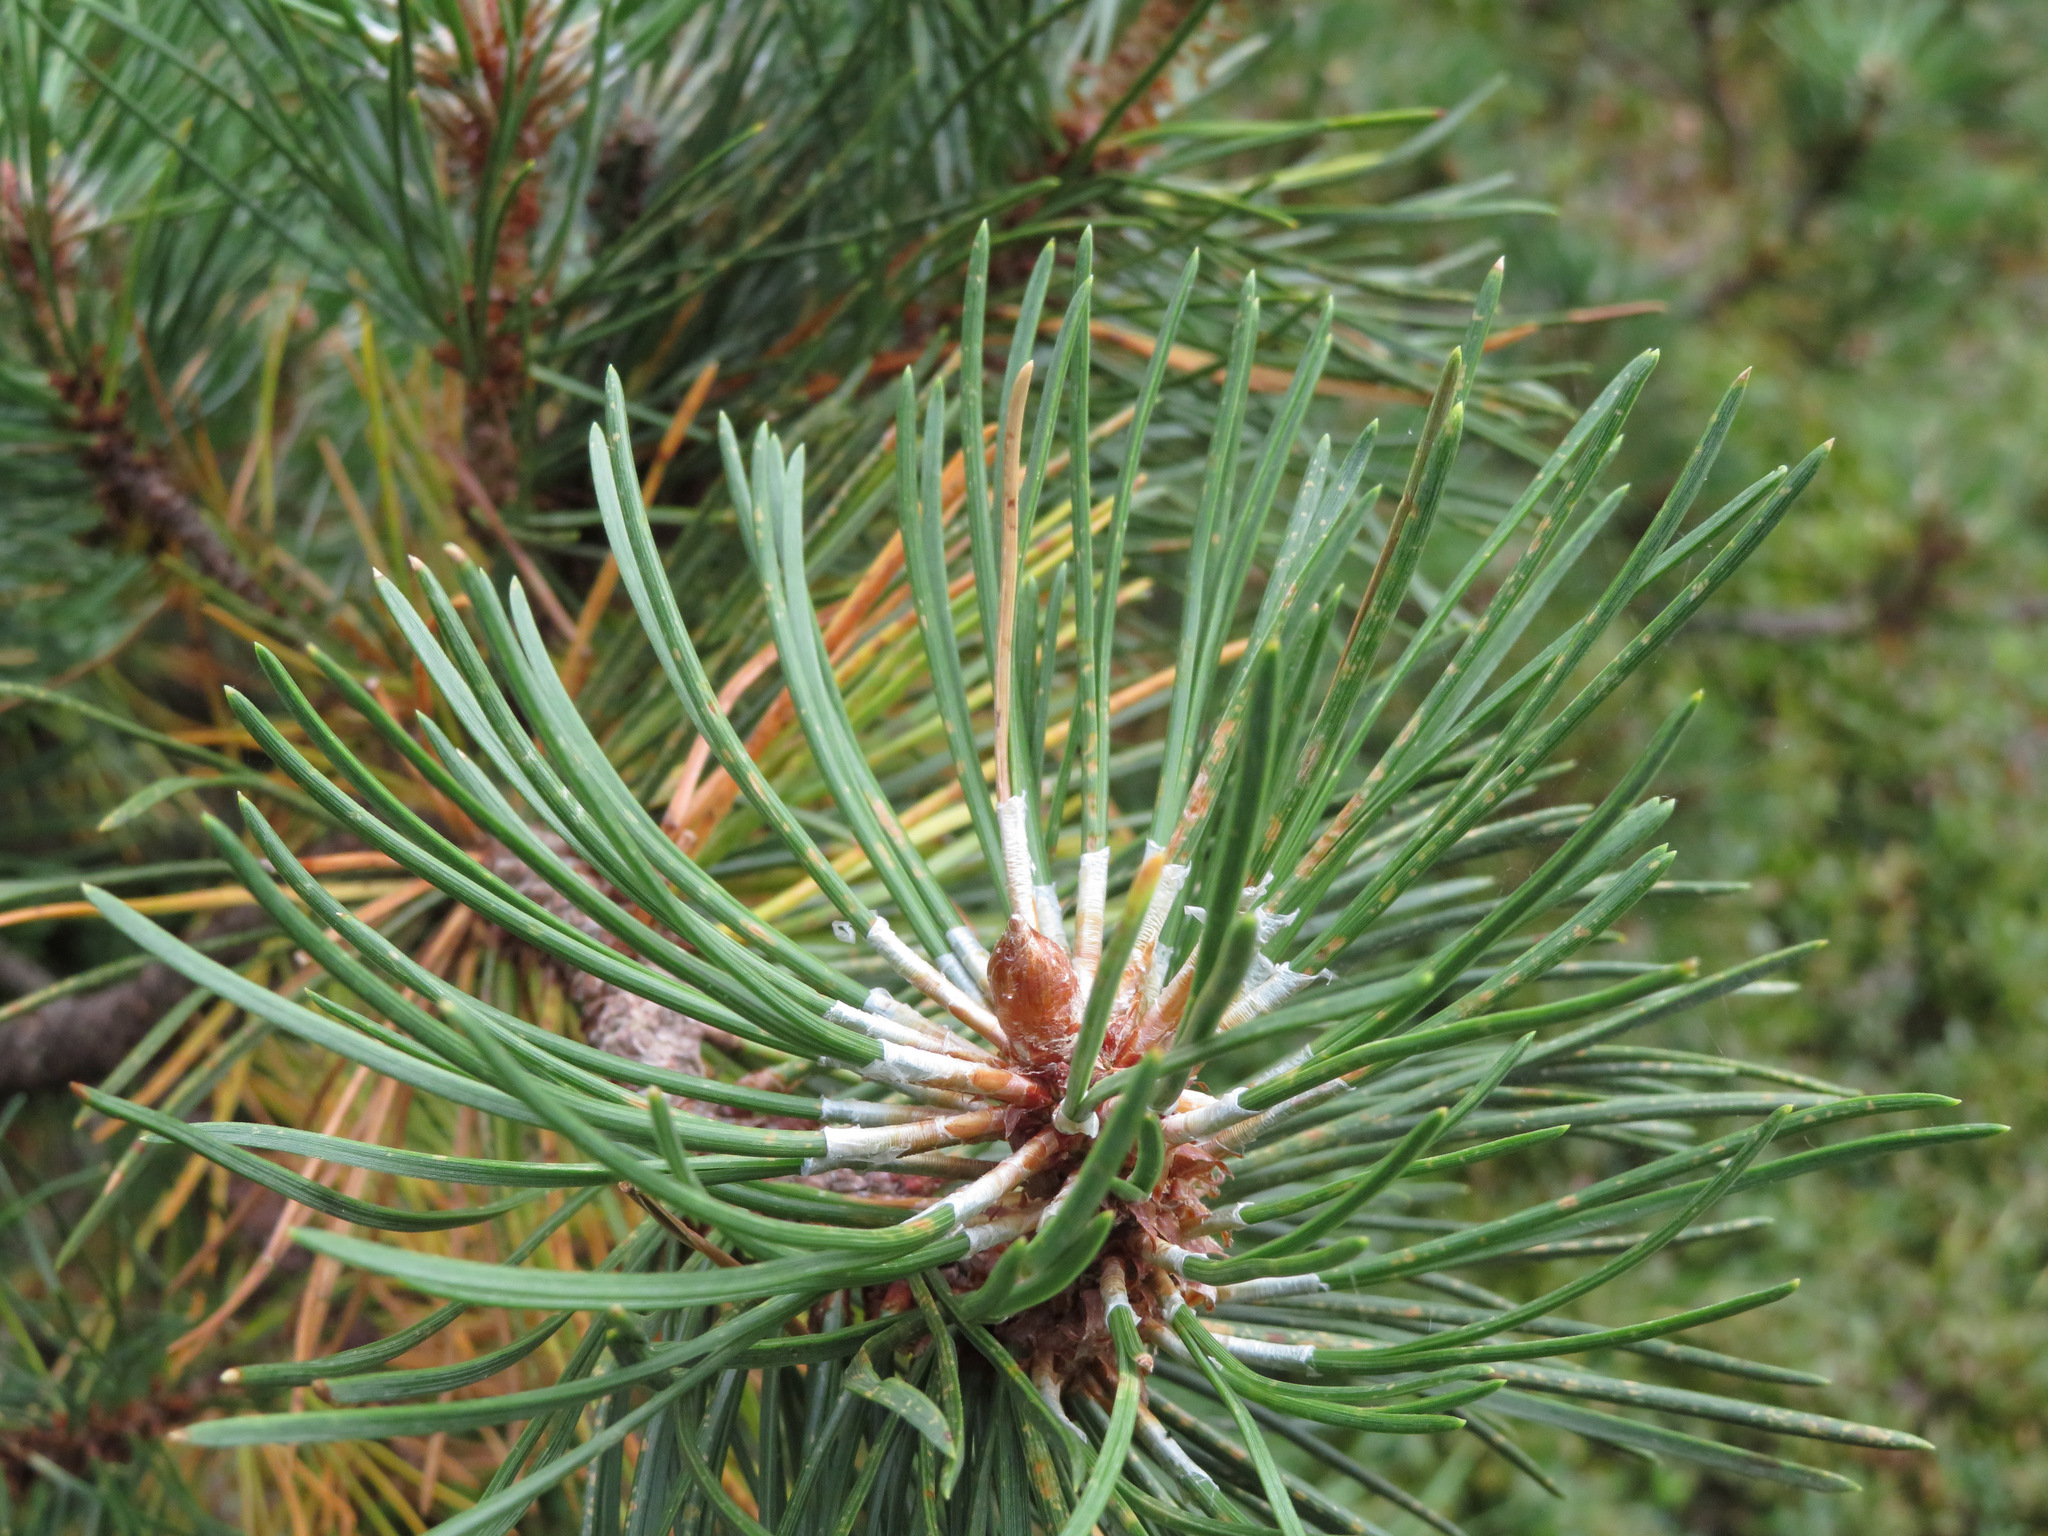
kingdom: Plantae
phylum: Tracheophyta
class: Pinopsida
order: Pinales
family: Pinaceae
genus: Pinus
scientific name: Pinus mugo
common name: Mugo pine
